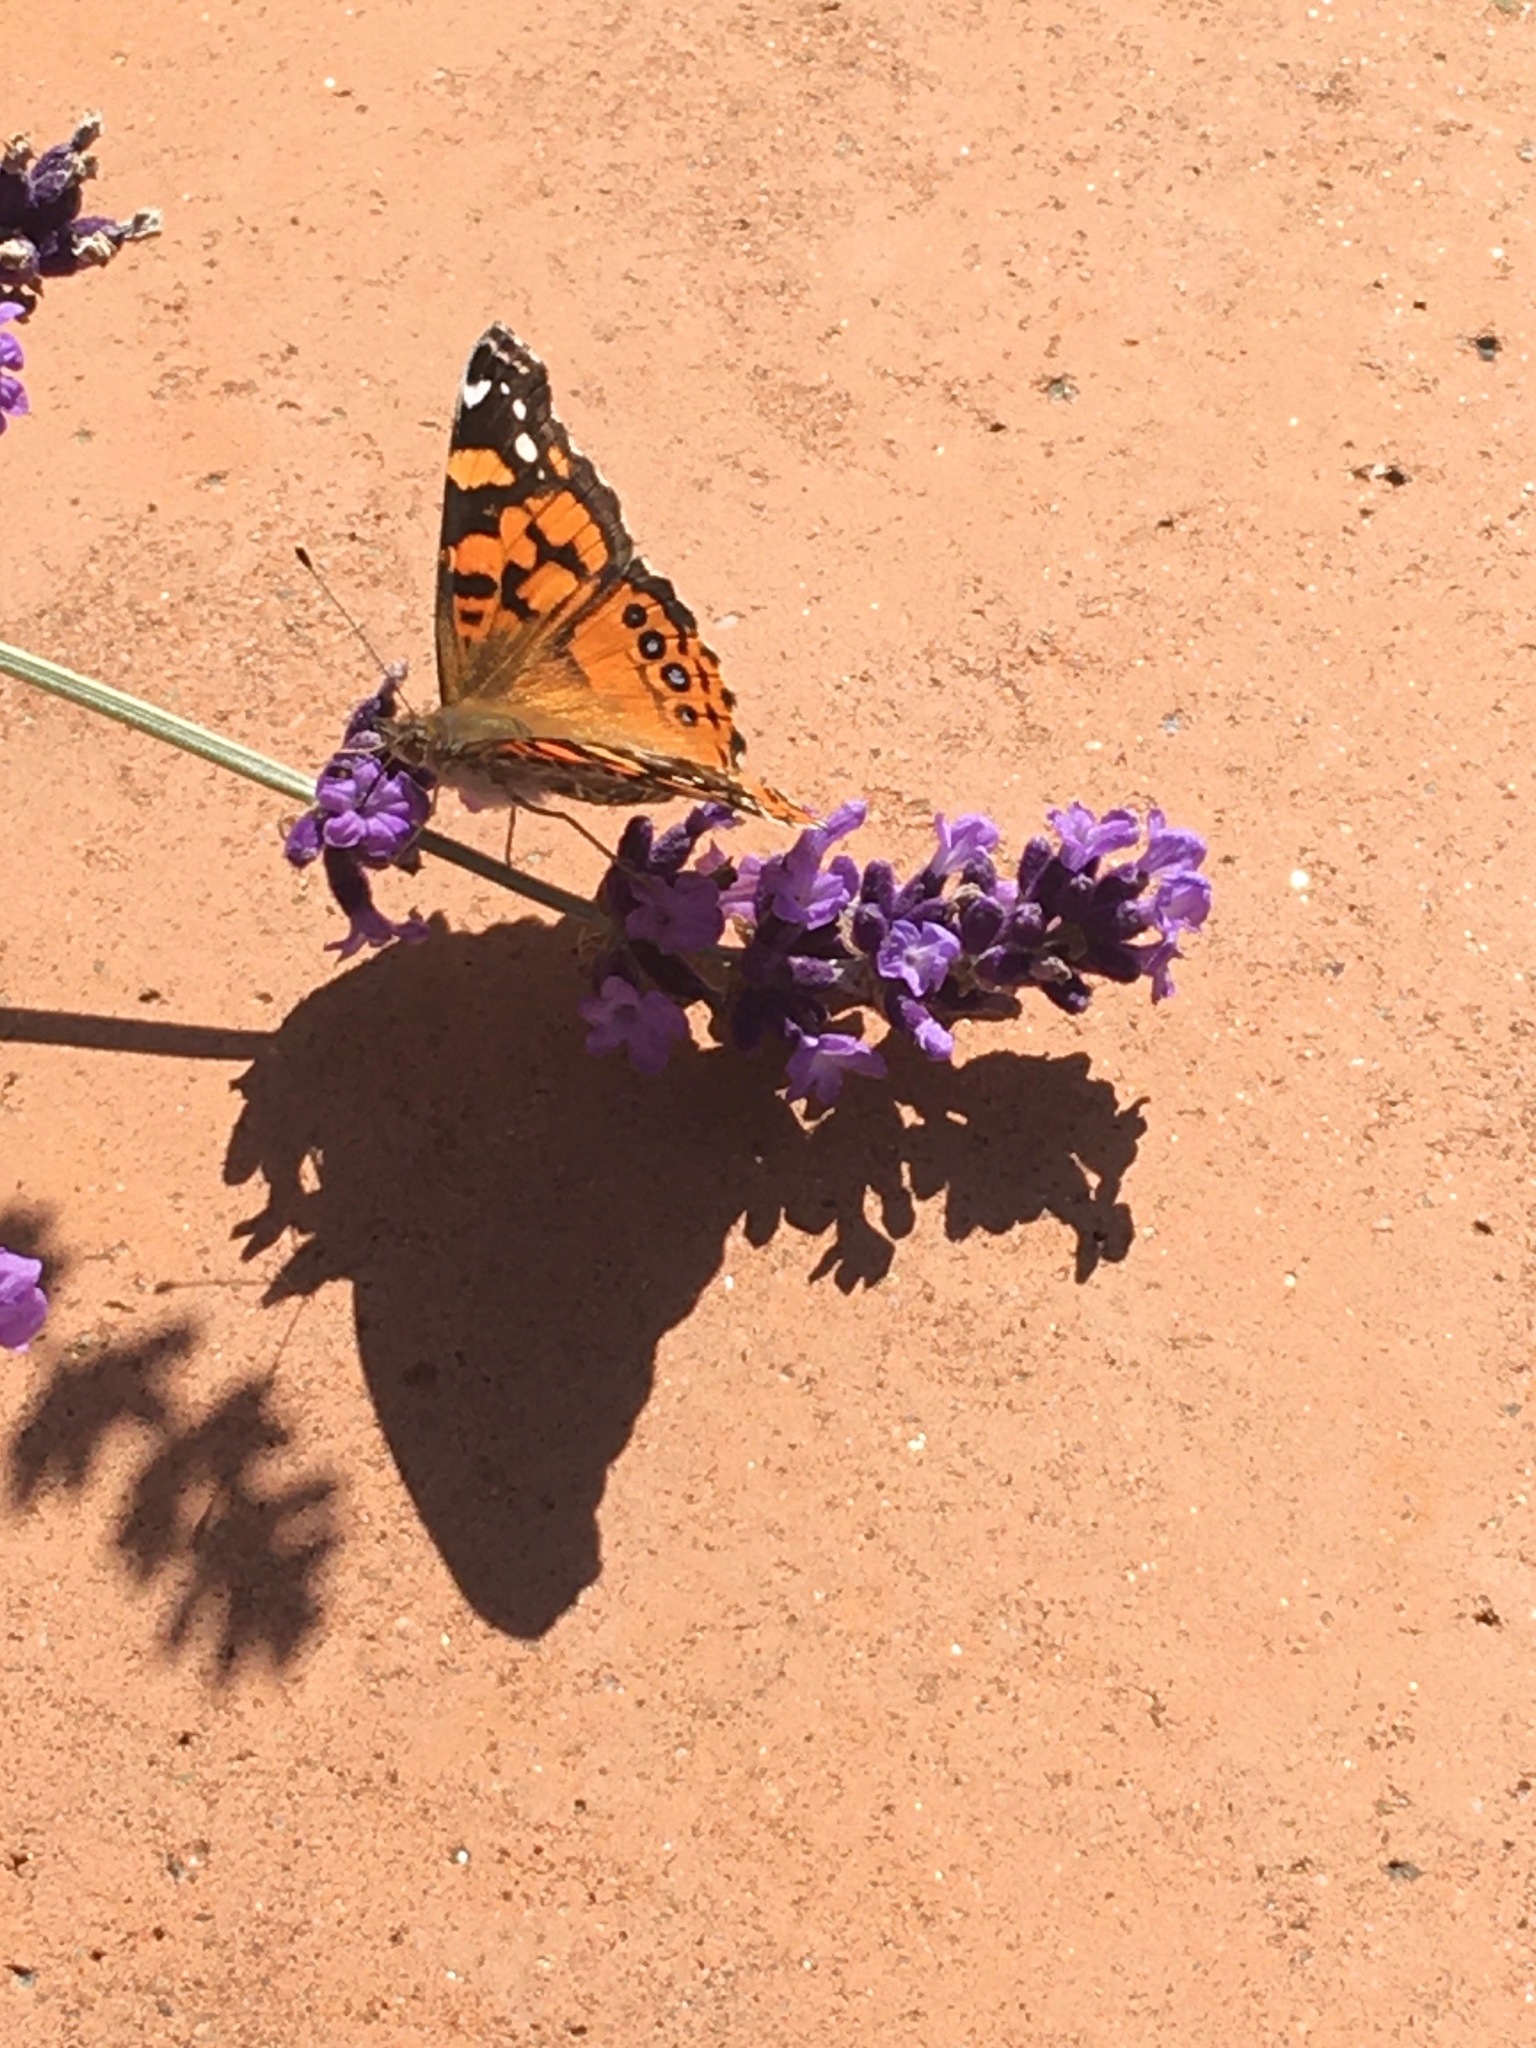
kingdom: Animalia
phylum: Arthropoda
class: Insecta
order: Lepidoptera
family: Nymphalidae
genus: Vanessa
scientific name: Vanessa annabella
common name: West coast lady
